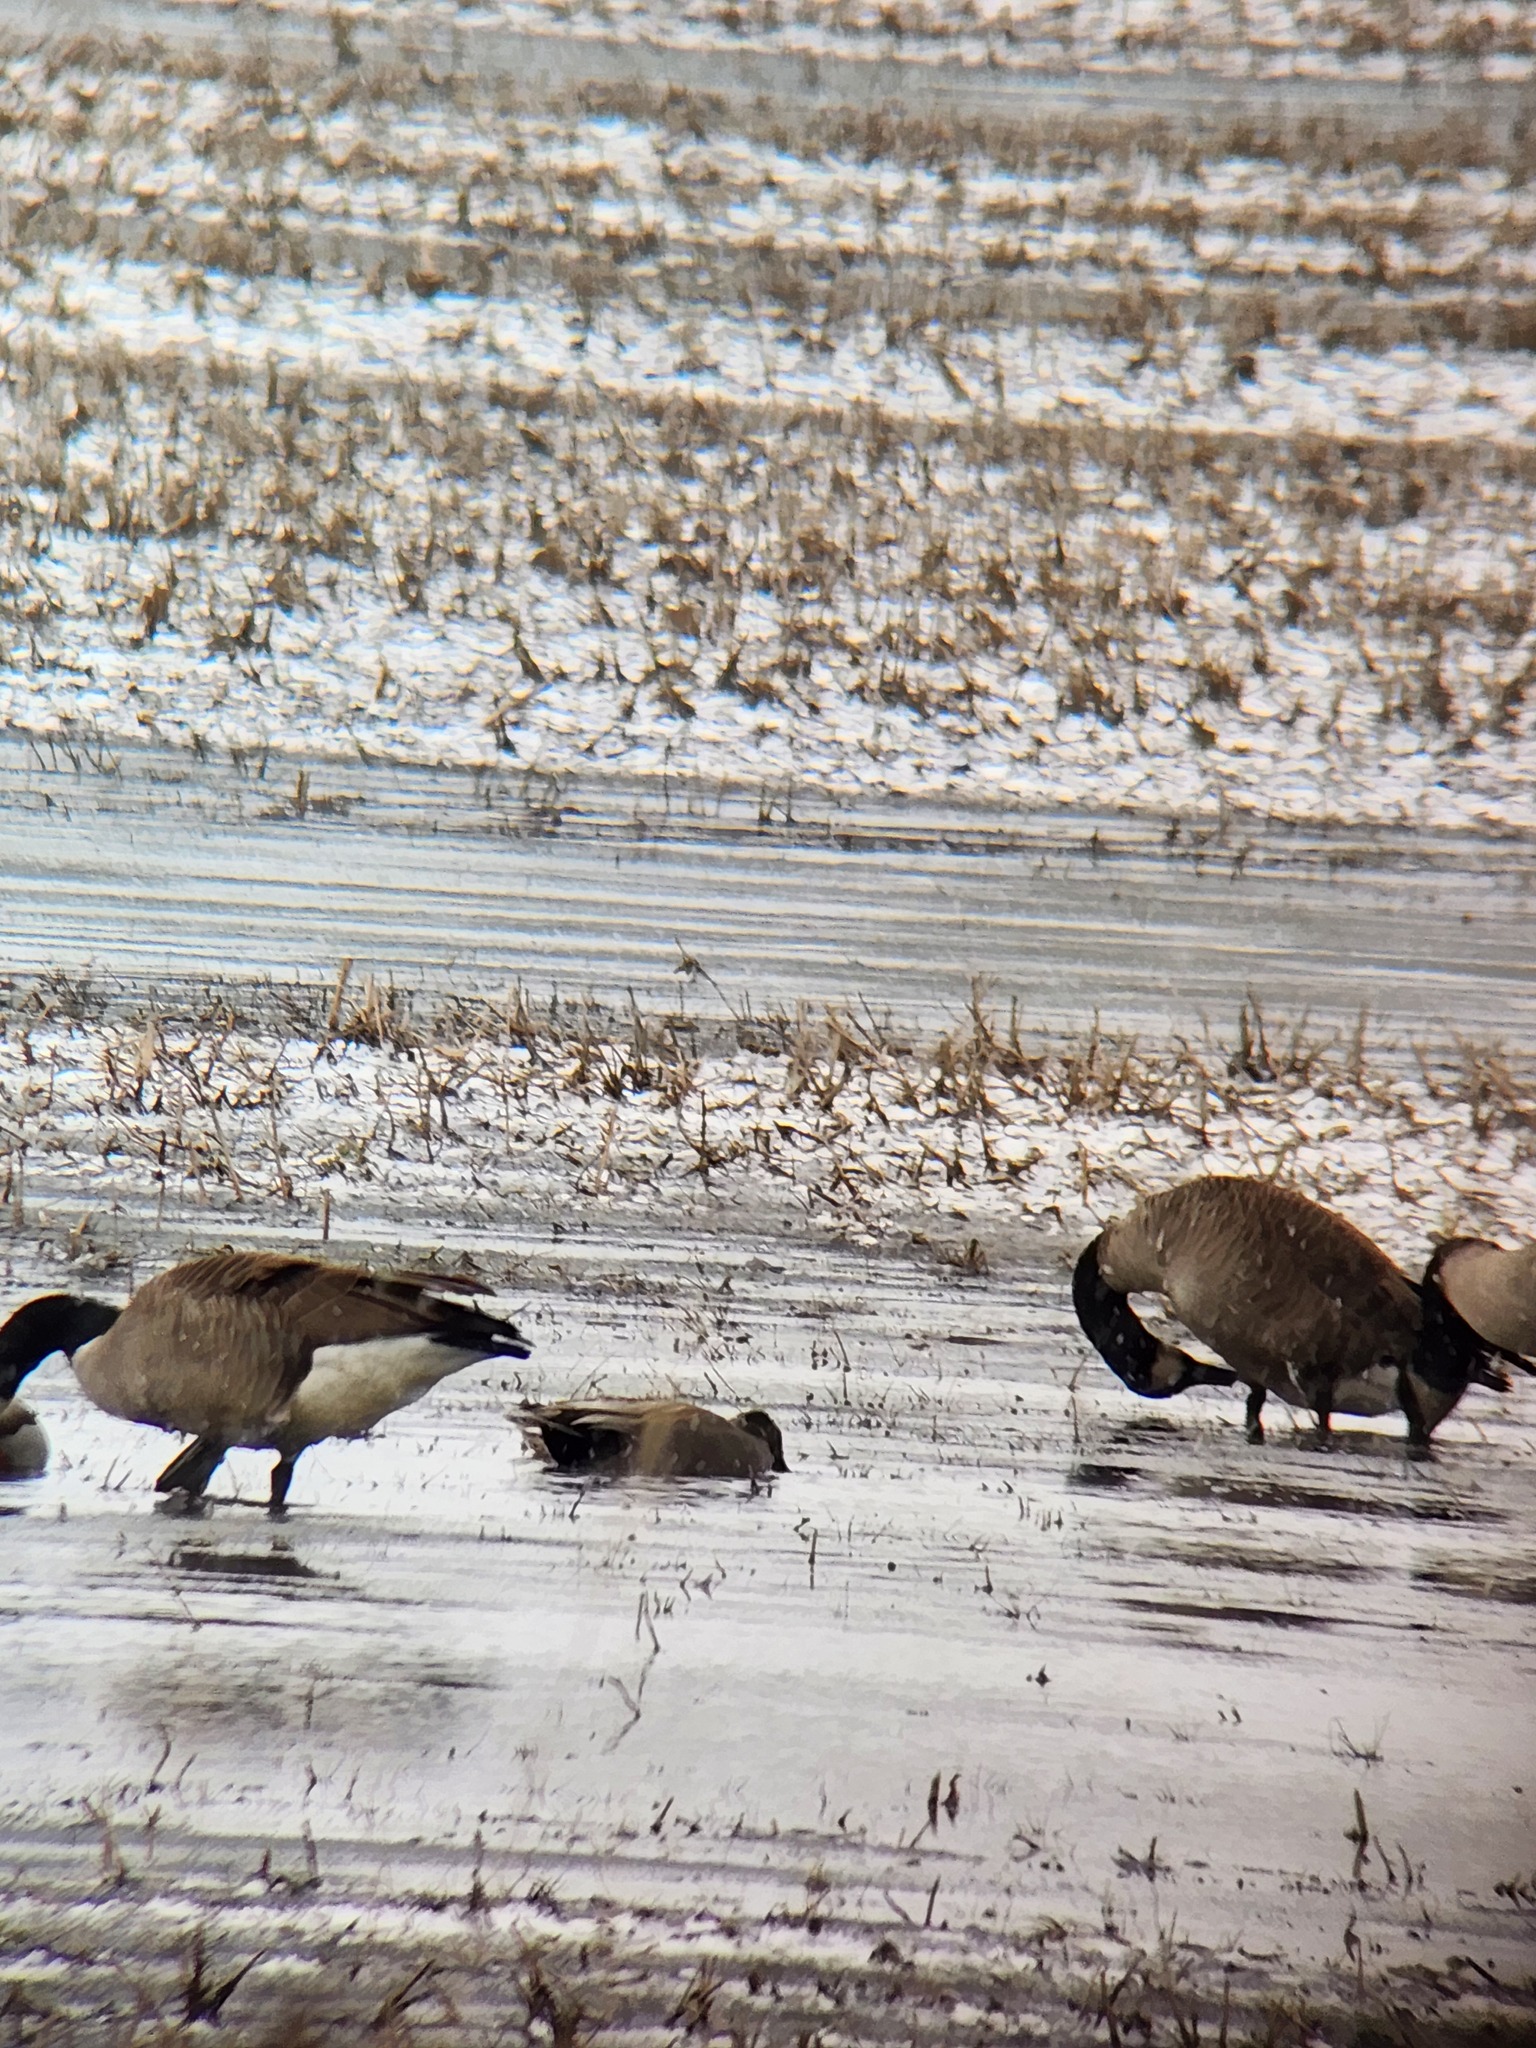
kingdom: Animalia
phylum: Chordata
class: Aves
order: Anseriformes
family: Anatidae
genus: Mareca
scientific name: Mareca strepera
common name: Gadwall
